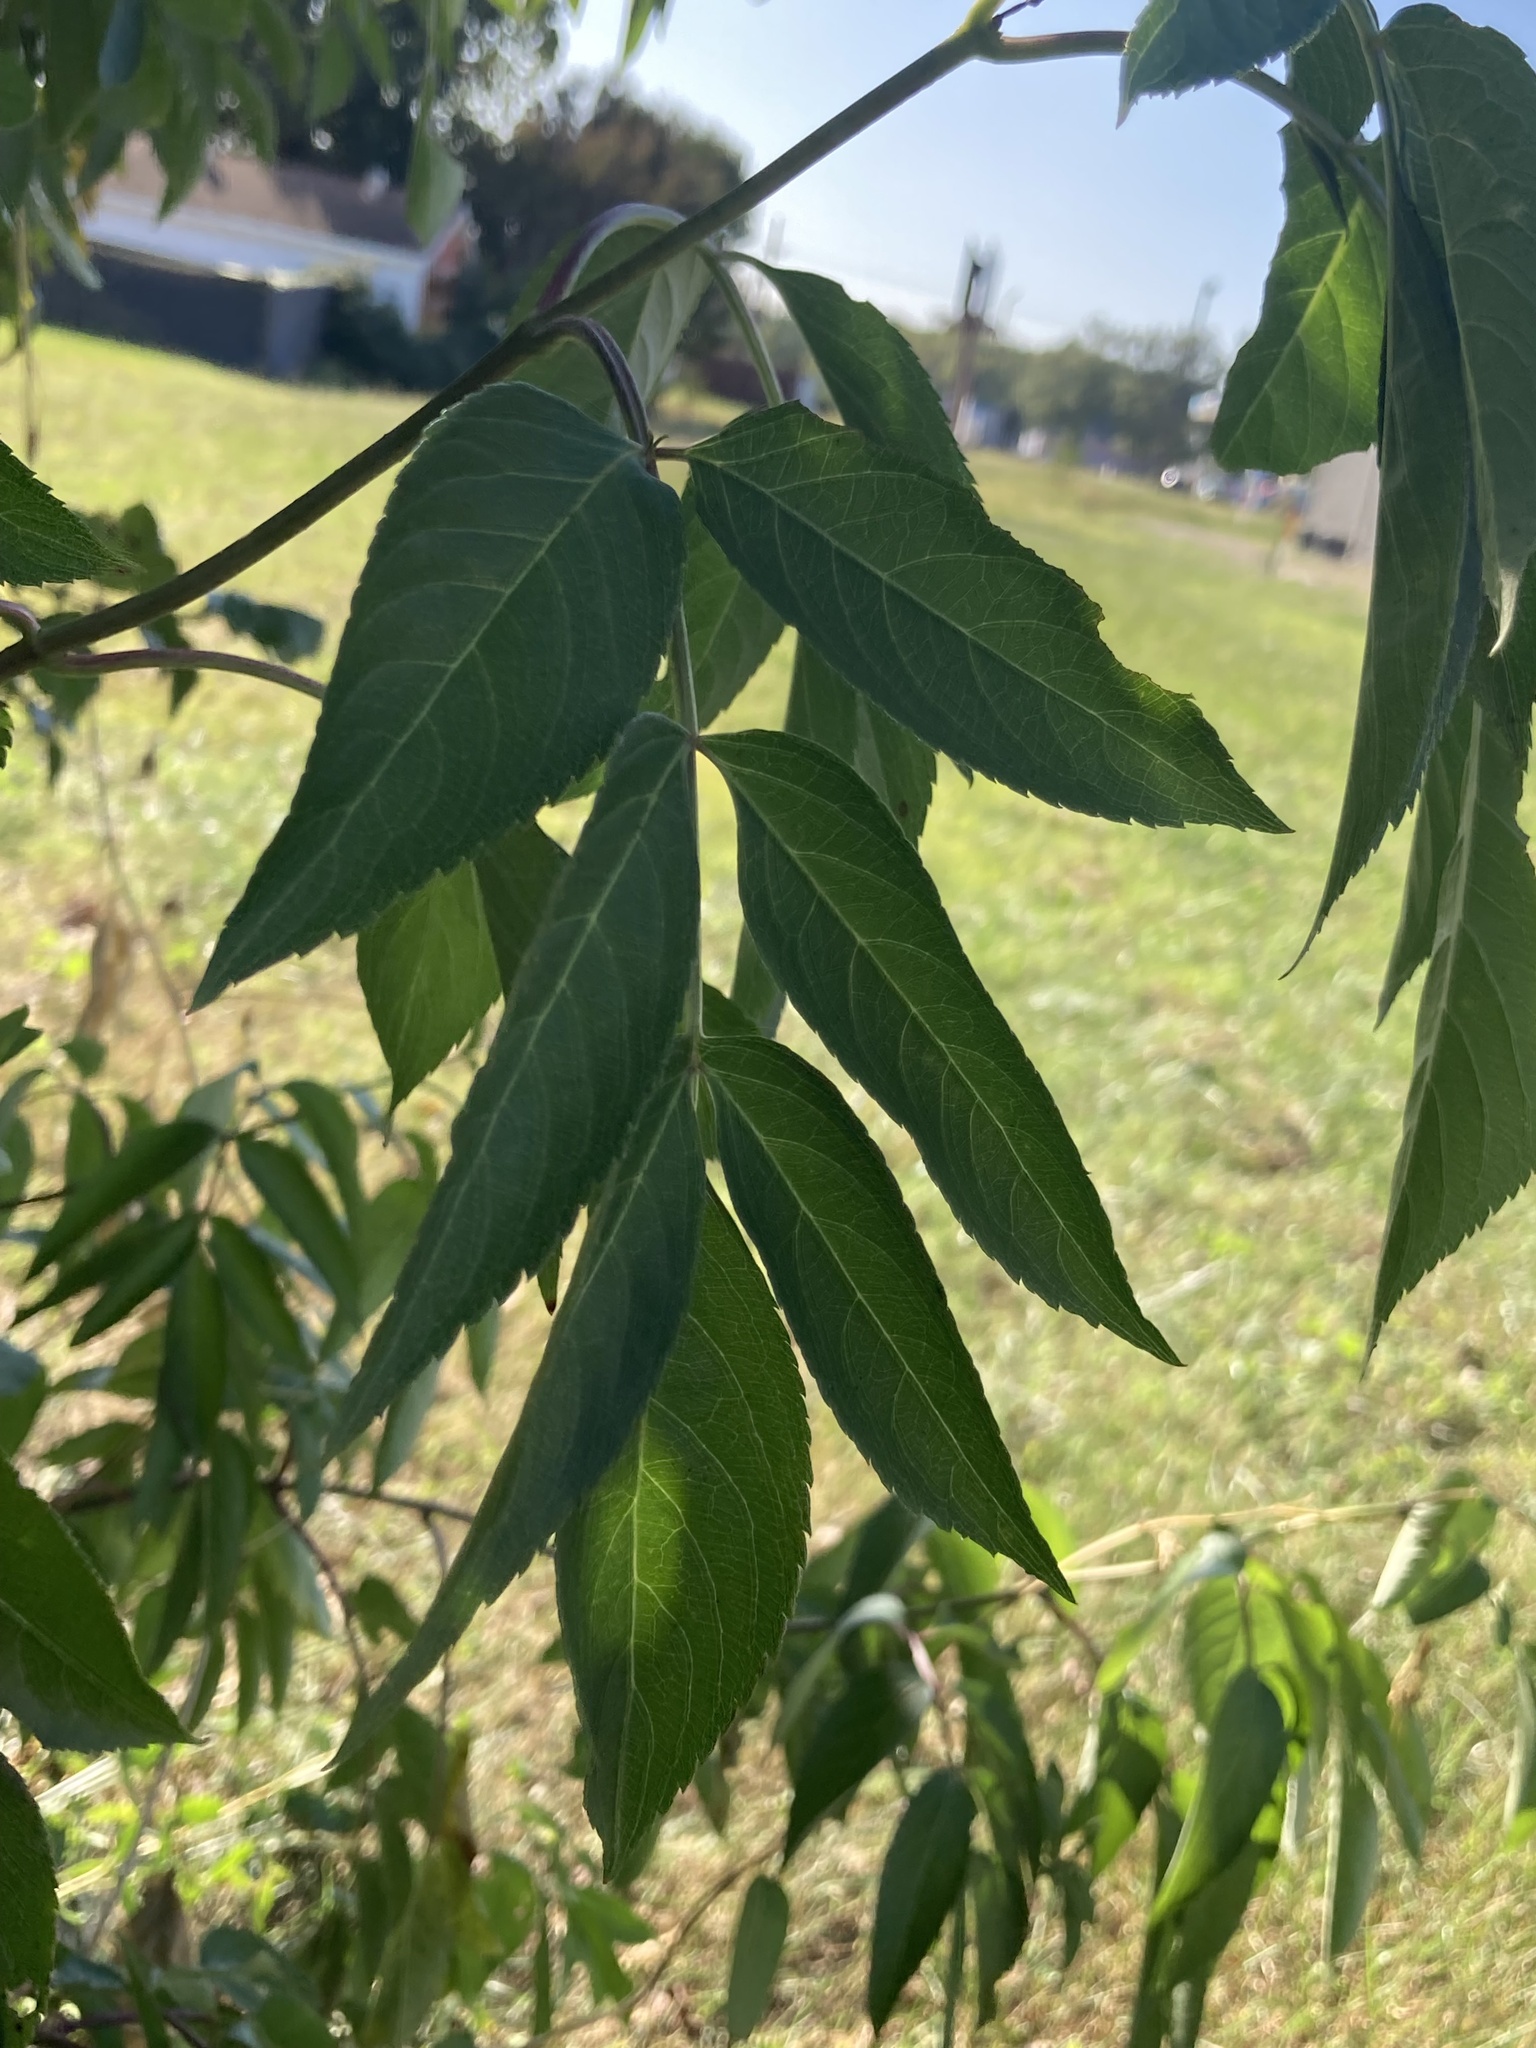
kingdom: Plantae
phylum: Tracheophyta
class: Magnoliopsida
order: Dipsacales
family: Viburnaceae
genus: Sambucus
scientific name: Sambucus canadensis
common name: American elder
